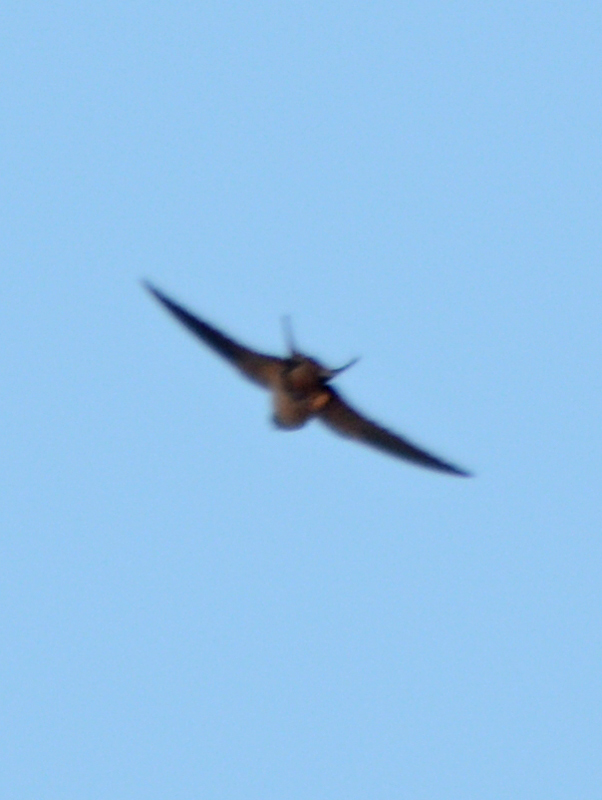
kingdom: Animalia
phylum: Chordata
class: Aves
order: Passeriformes
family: Hirundinidae
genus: Hirundo
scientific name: Hirundo rustica
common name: Barn swallow
